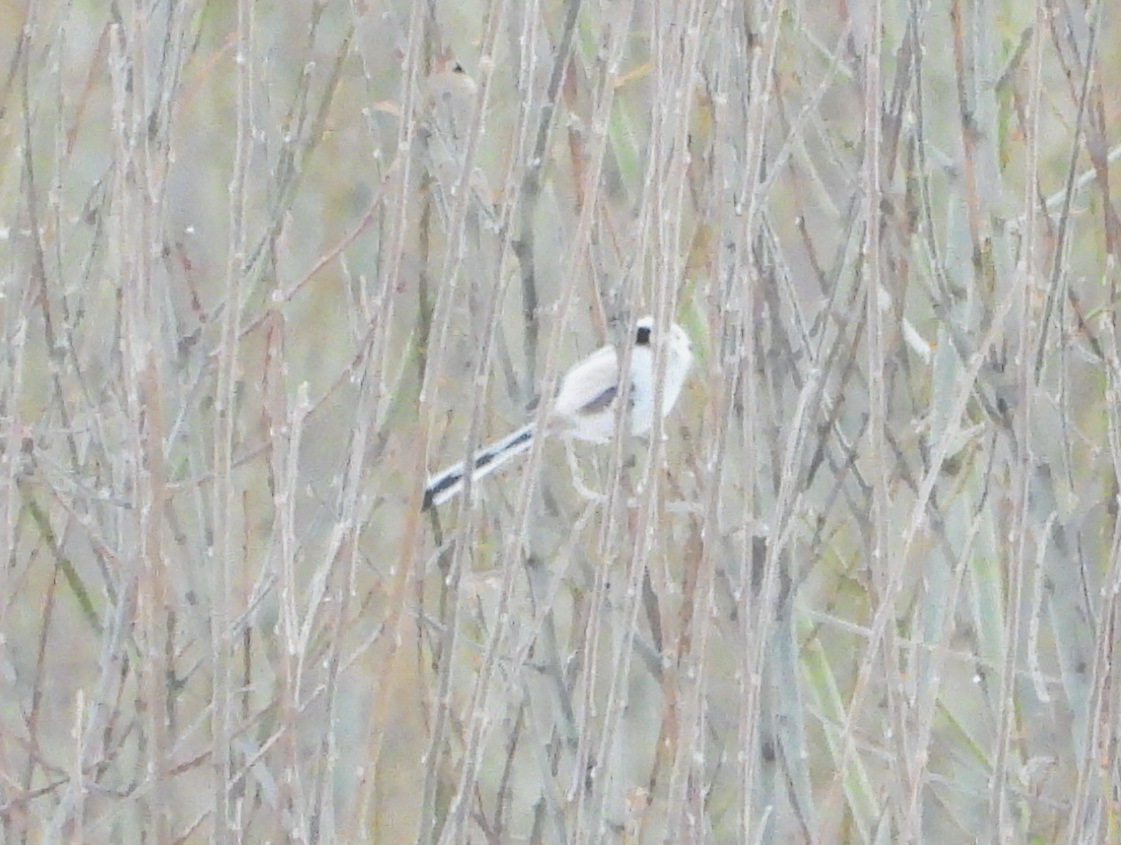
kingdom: Animalia
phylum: Chordata
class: Aves
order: Passeriformes
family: Aegithalidae
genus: Aegithalos
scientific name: Aegithalos caudatus
